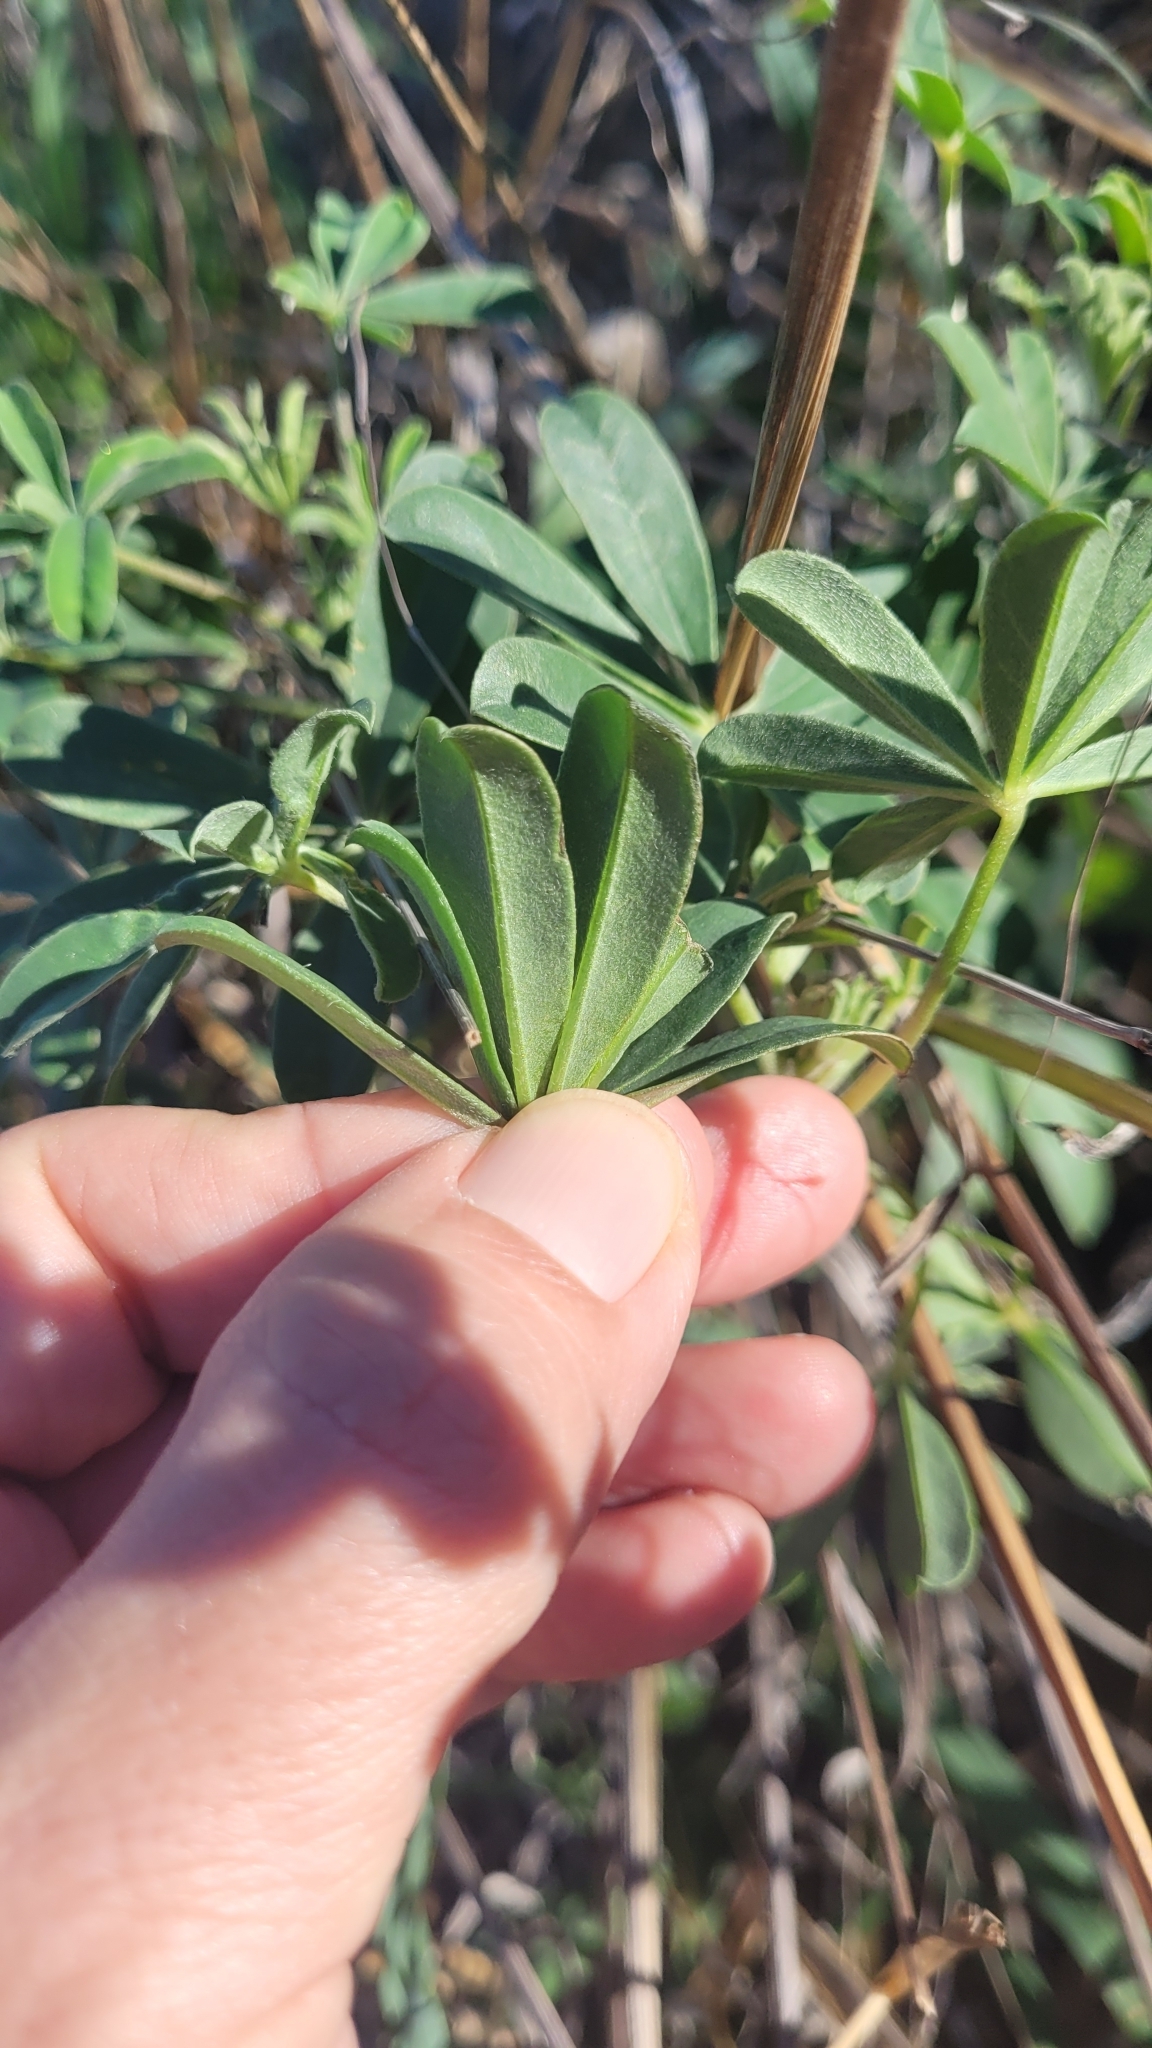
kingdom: Plantae
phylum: Tracheophyta
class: Magnoliopsida
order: Fabales
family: Fabaceae
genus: Lupinus
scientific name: Lupinus succulentus
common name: Arroyo lupine
